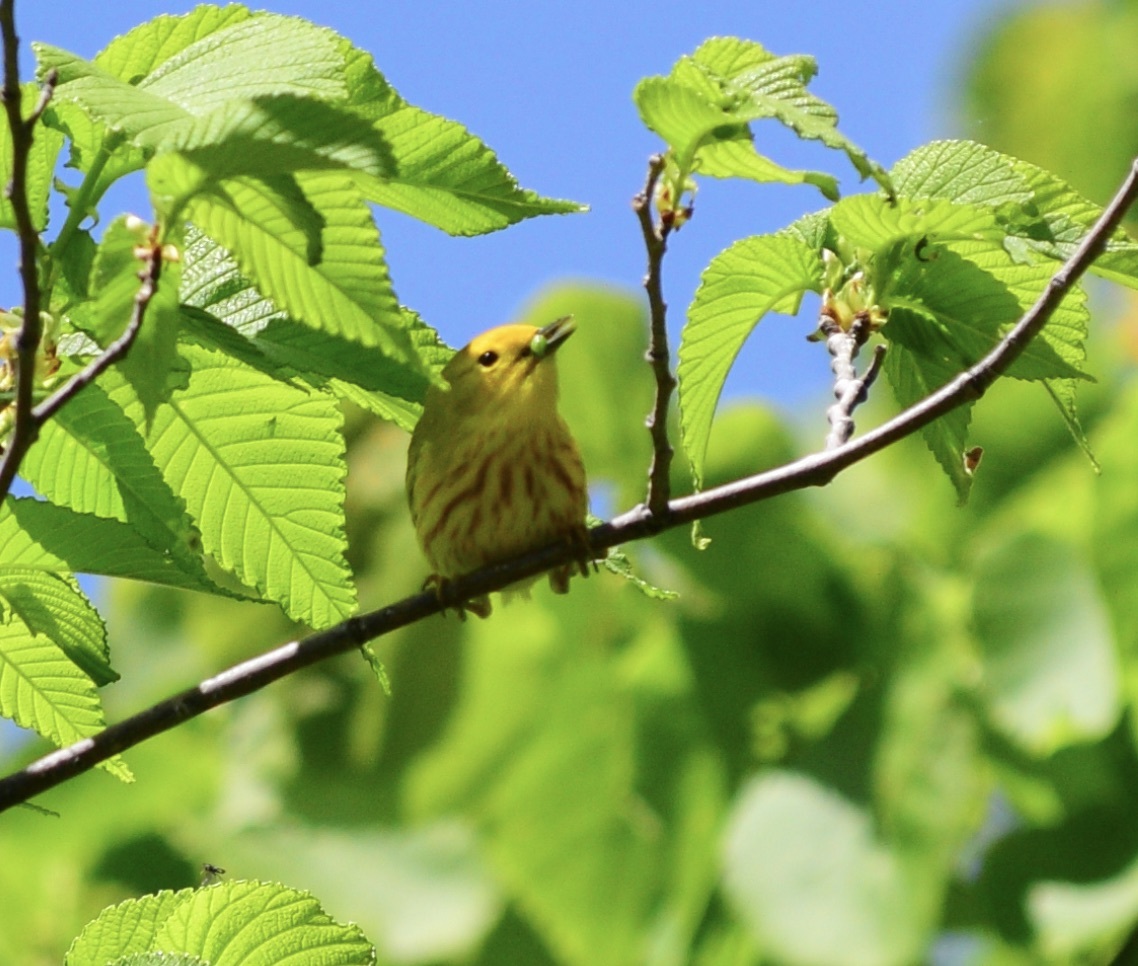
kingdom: Animalia
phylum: Chordata
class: Aves
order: Passeriformes
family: Parulidae
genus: Setophaga
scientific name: Setophaga petechia
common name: Yellow warbler
